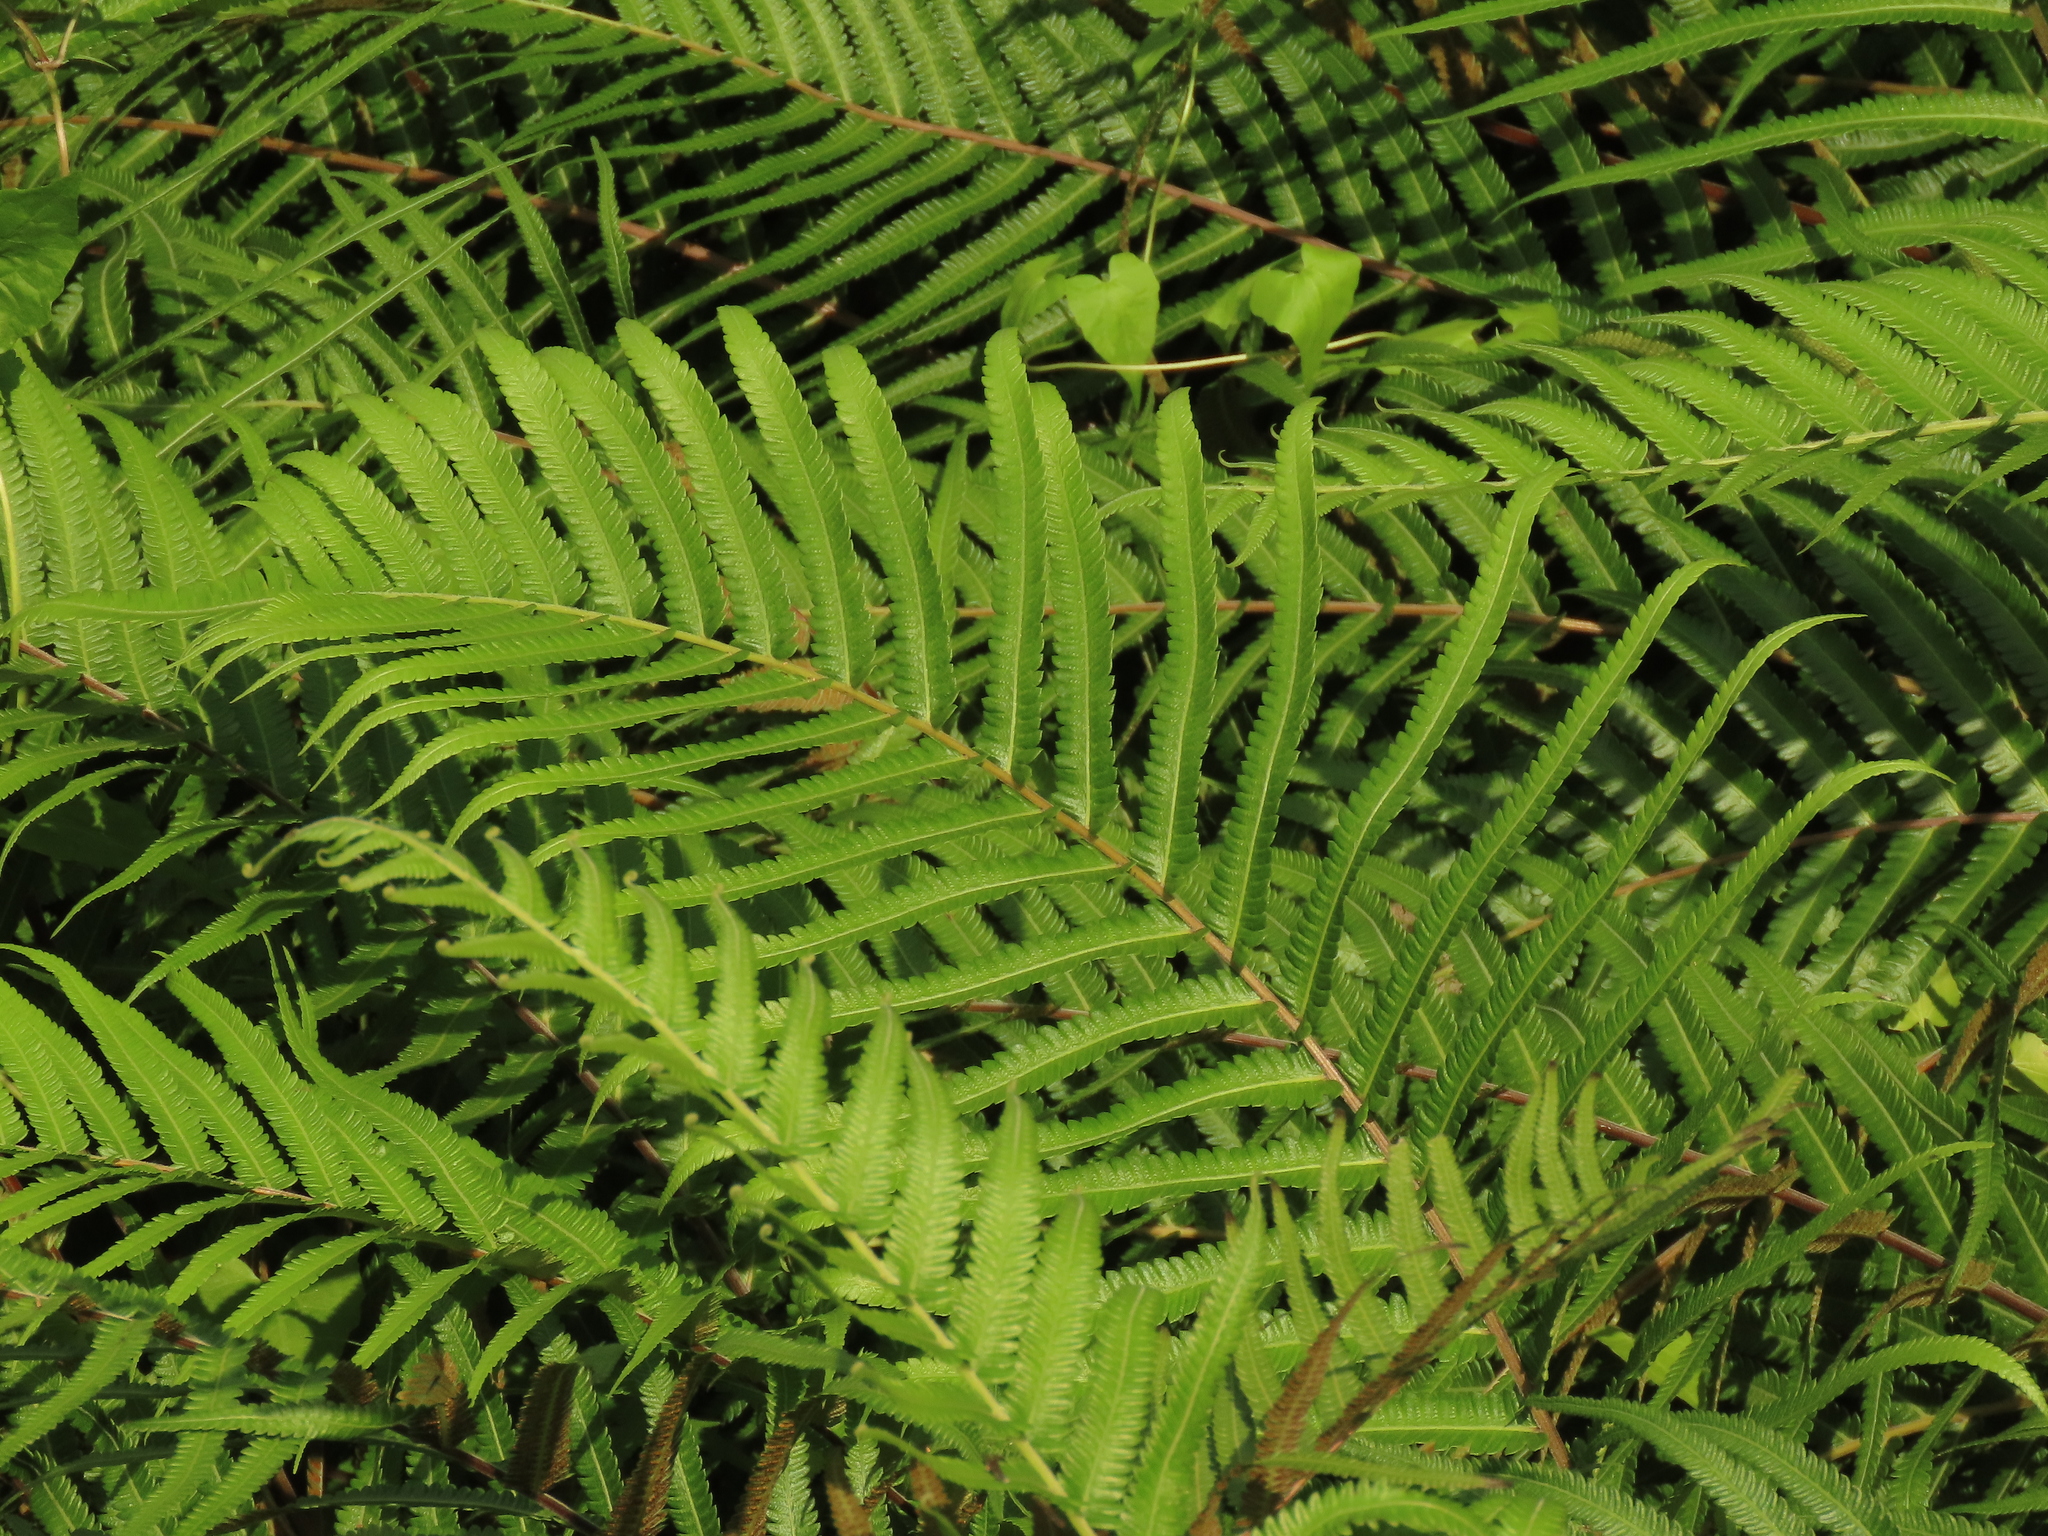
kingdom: Plantae
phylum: Tracheophyta
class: Polypodiopsida
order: Polypodiales
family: Thelypteridaceae
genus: Christella
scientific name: Christella acuminata
